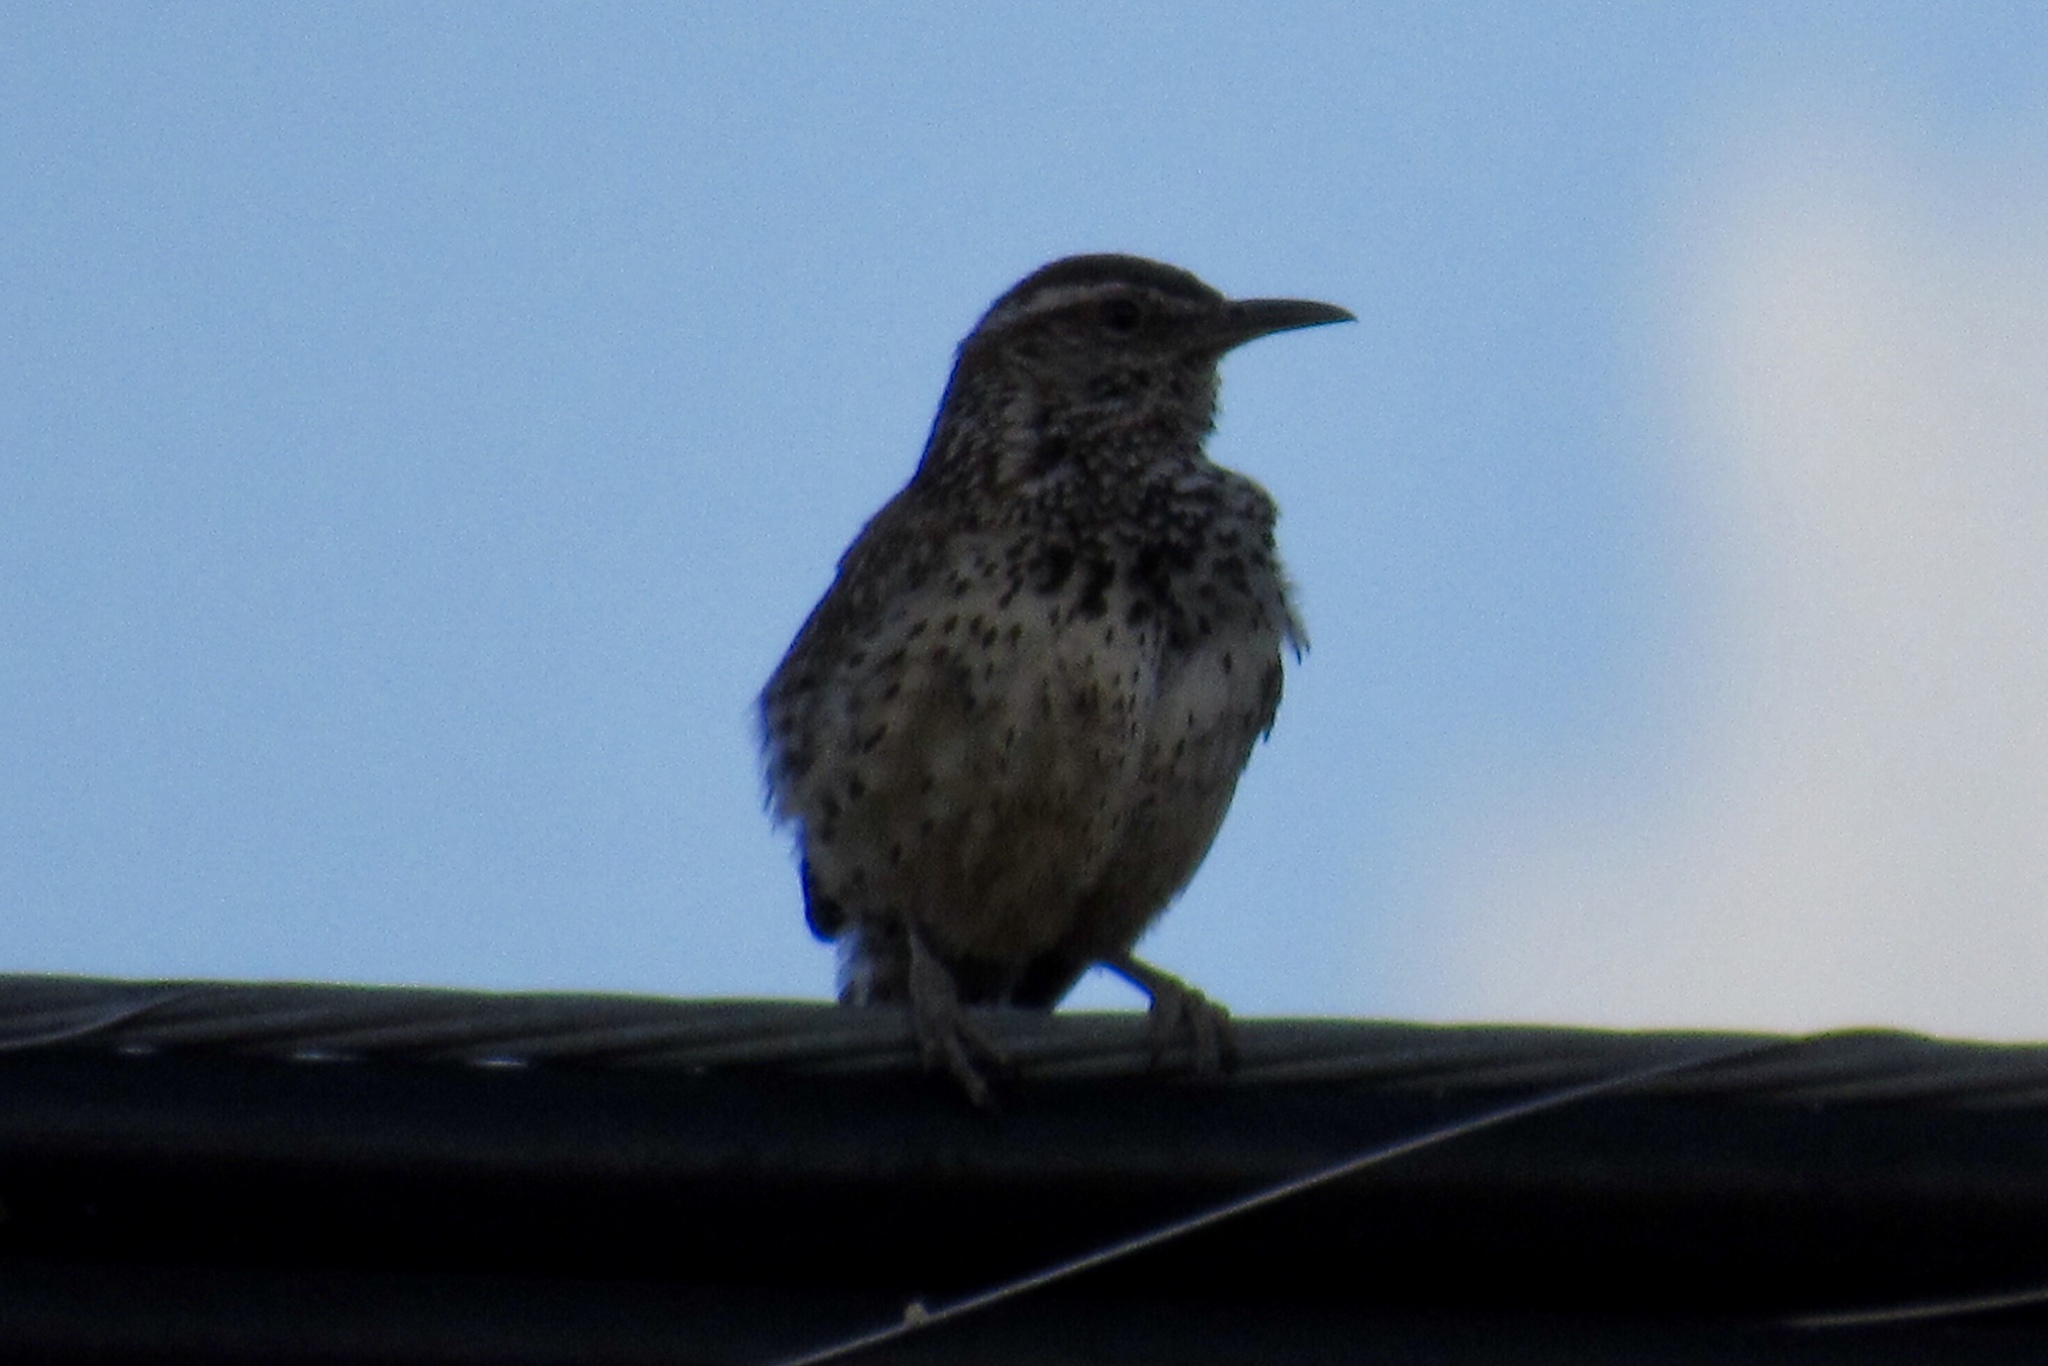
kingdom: Animalia
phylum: Chordata
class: Aves
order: Passeriformes
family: Troglodytidae
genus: Campylorhynchus
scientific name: Campylorhynchus brunneicapillus
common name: Cactus wren
